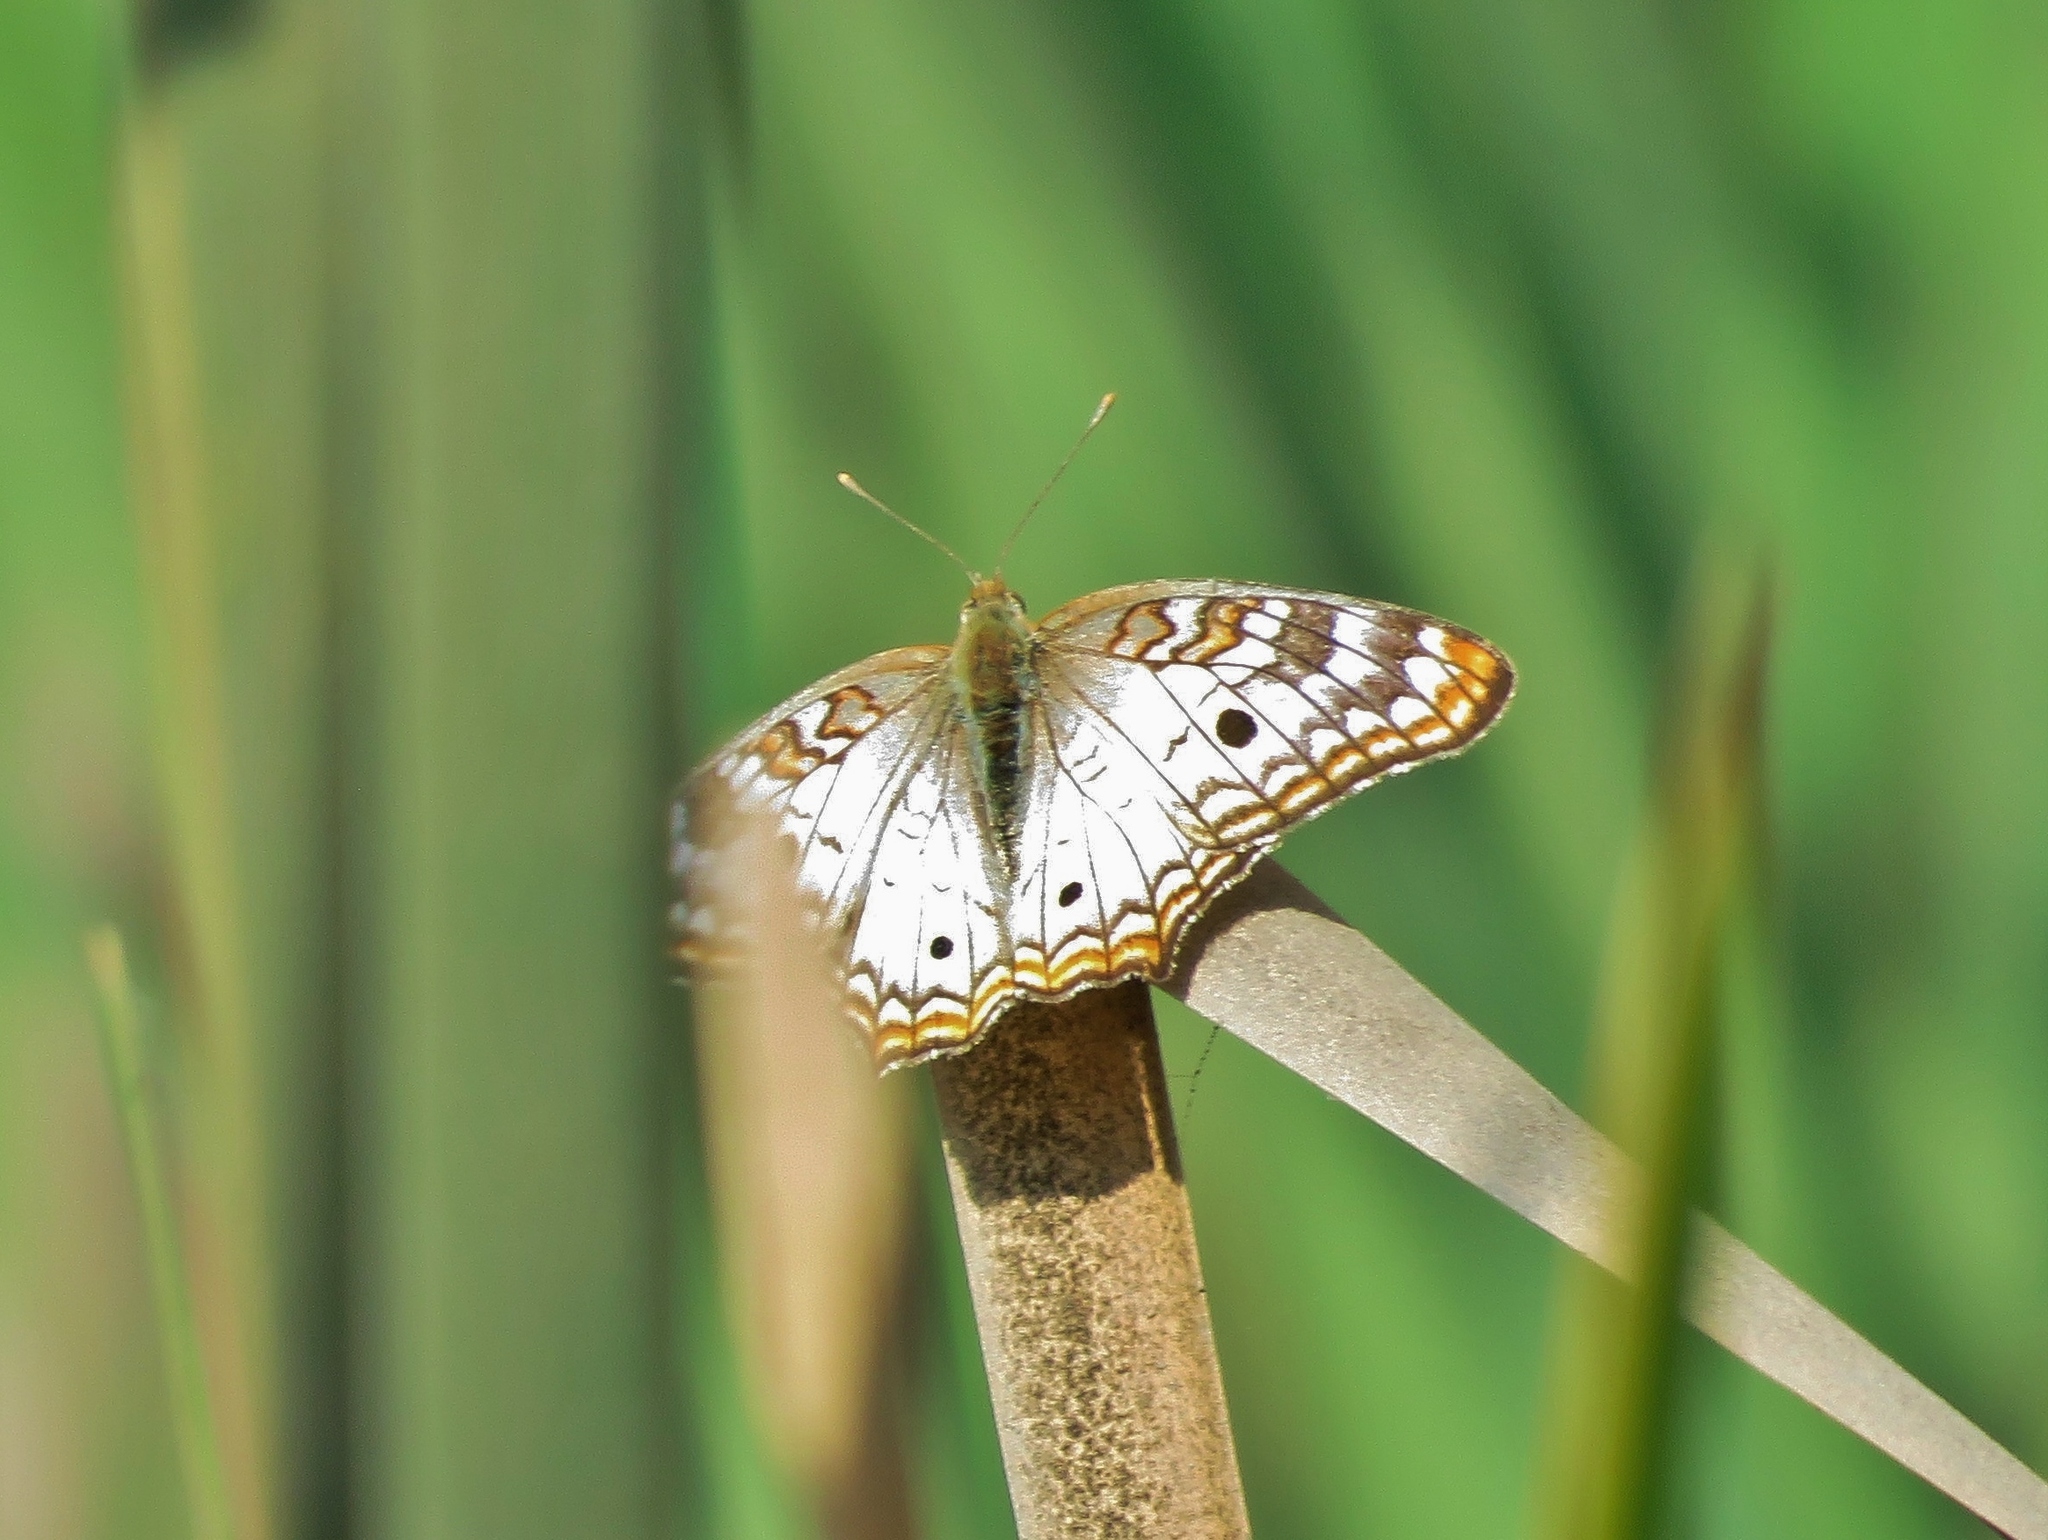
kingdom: Animalia
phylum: Arthropoda
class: Insecta
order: Lepidoptera
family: Nymphalidae
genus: Anartia
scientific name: Anartia jatrophae
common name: White peacock
